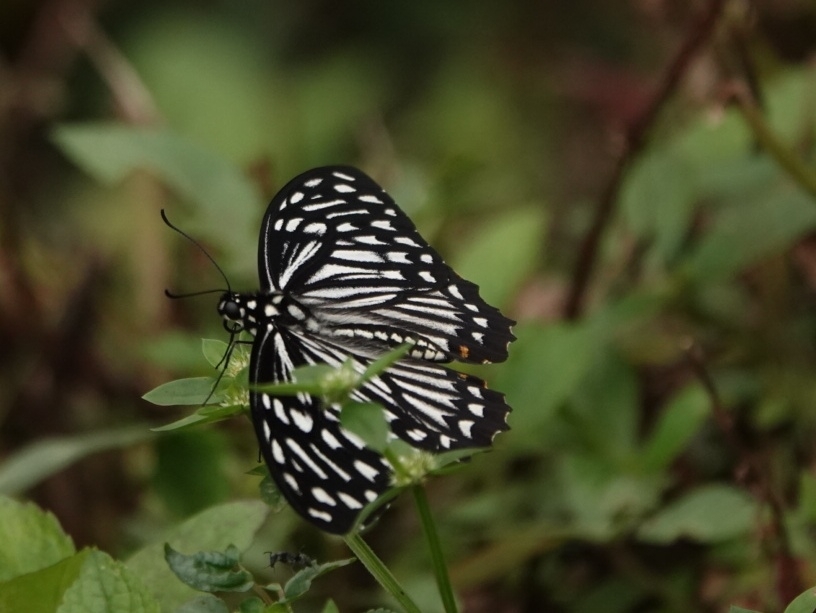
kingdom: Animalia
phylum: Arthropoda
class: Insecta
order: Lepidoptera
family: Papilionidae
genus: Chilasa
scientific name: Chilasa clytia
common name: Common mime
